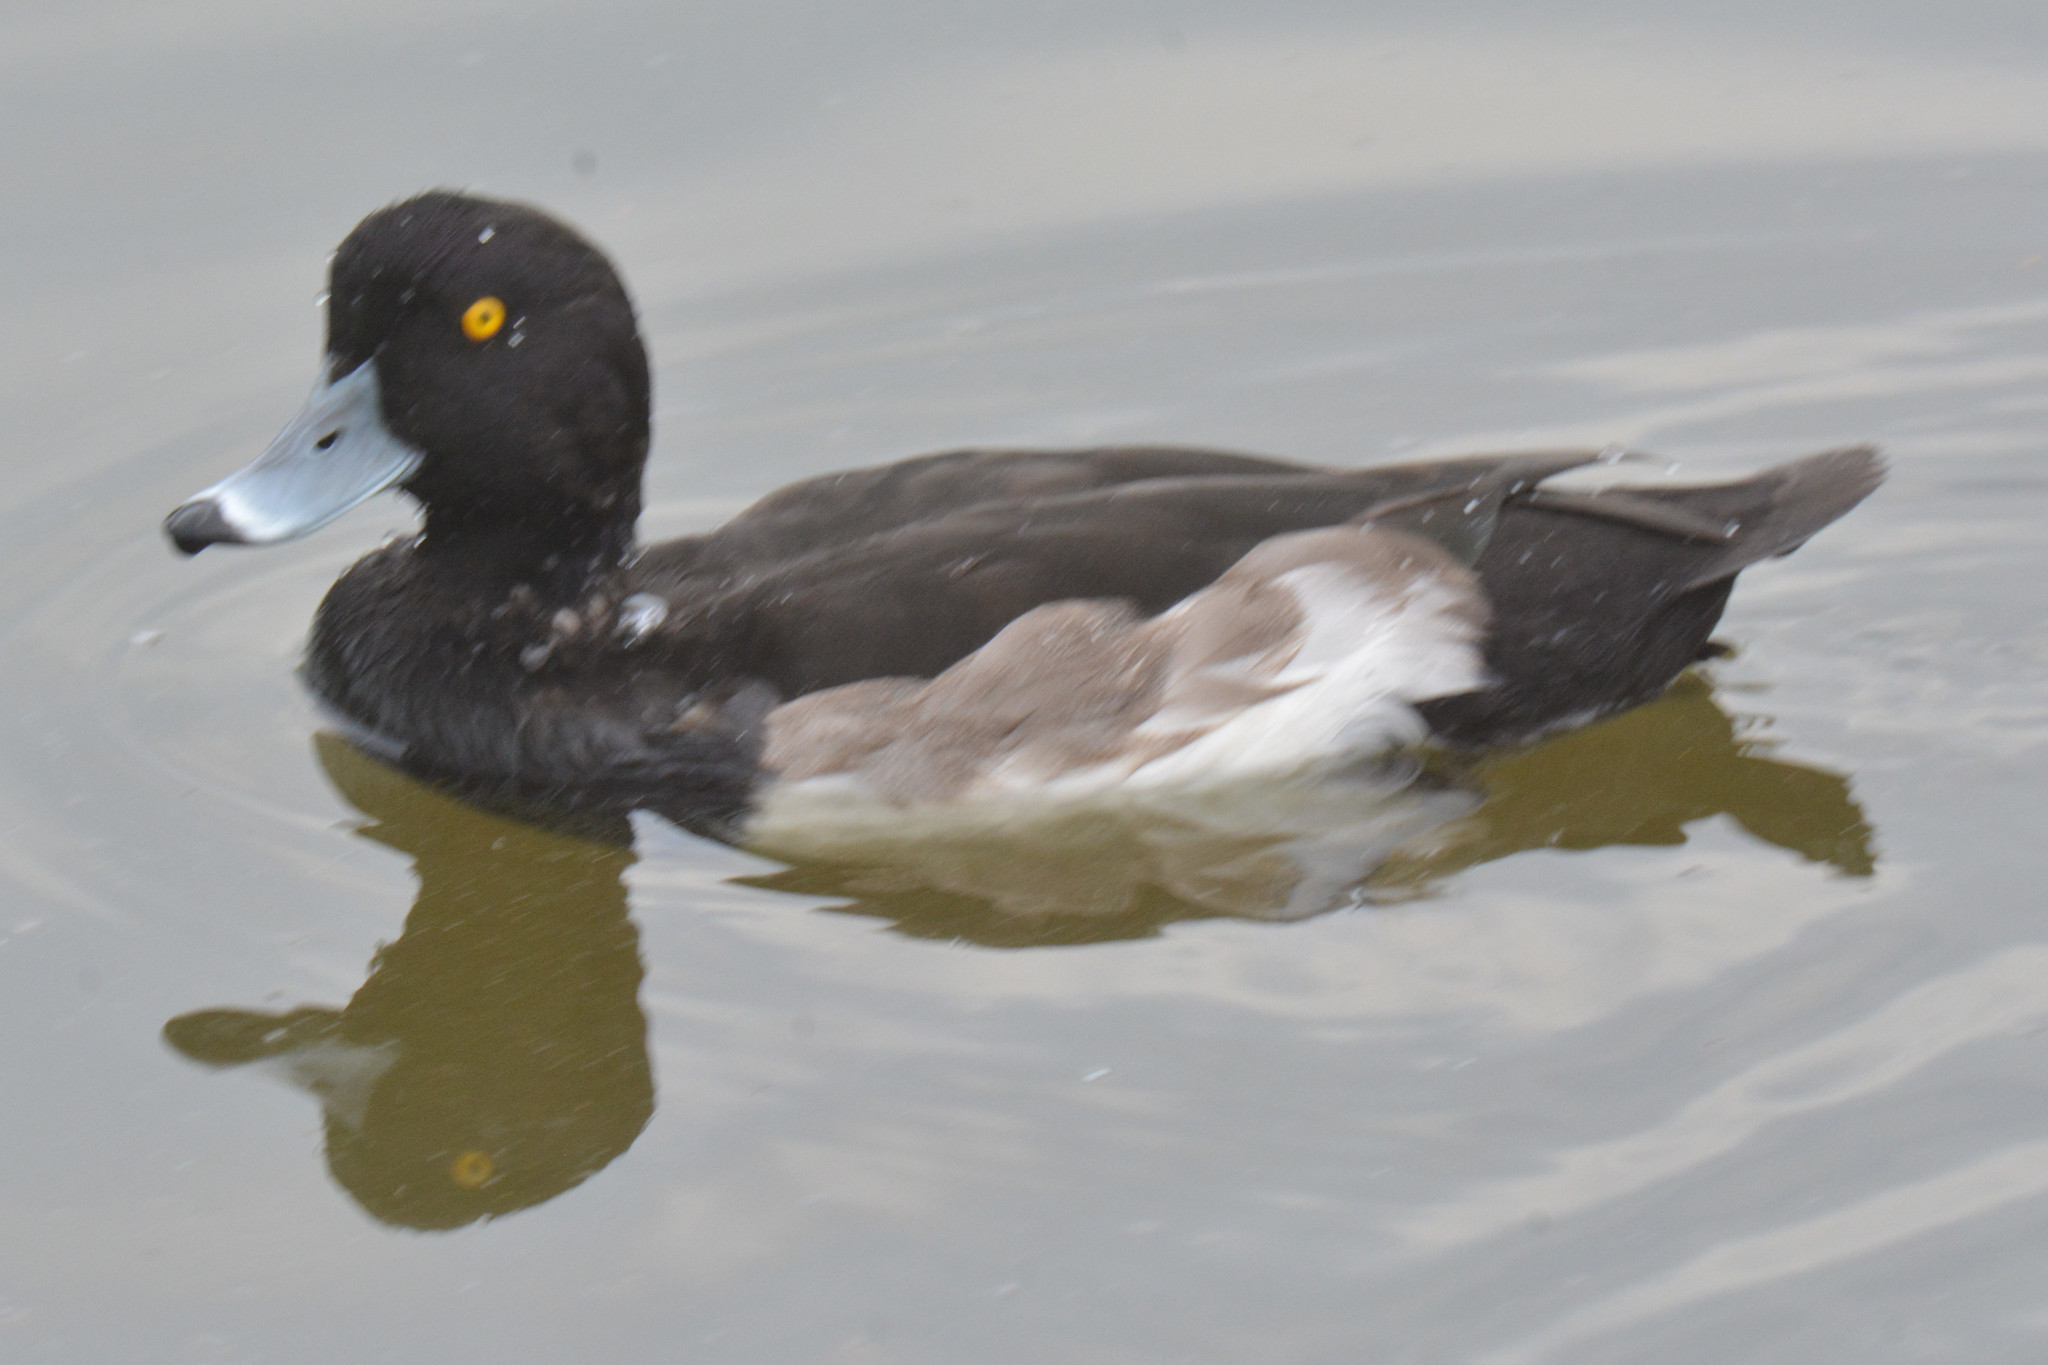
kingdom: Animalia
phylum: Chordata
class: Aves
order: Anseriformes
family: Anatidae
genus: Aythya
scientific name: Aythya fuligula
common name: Tufted duck
